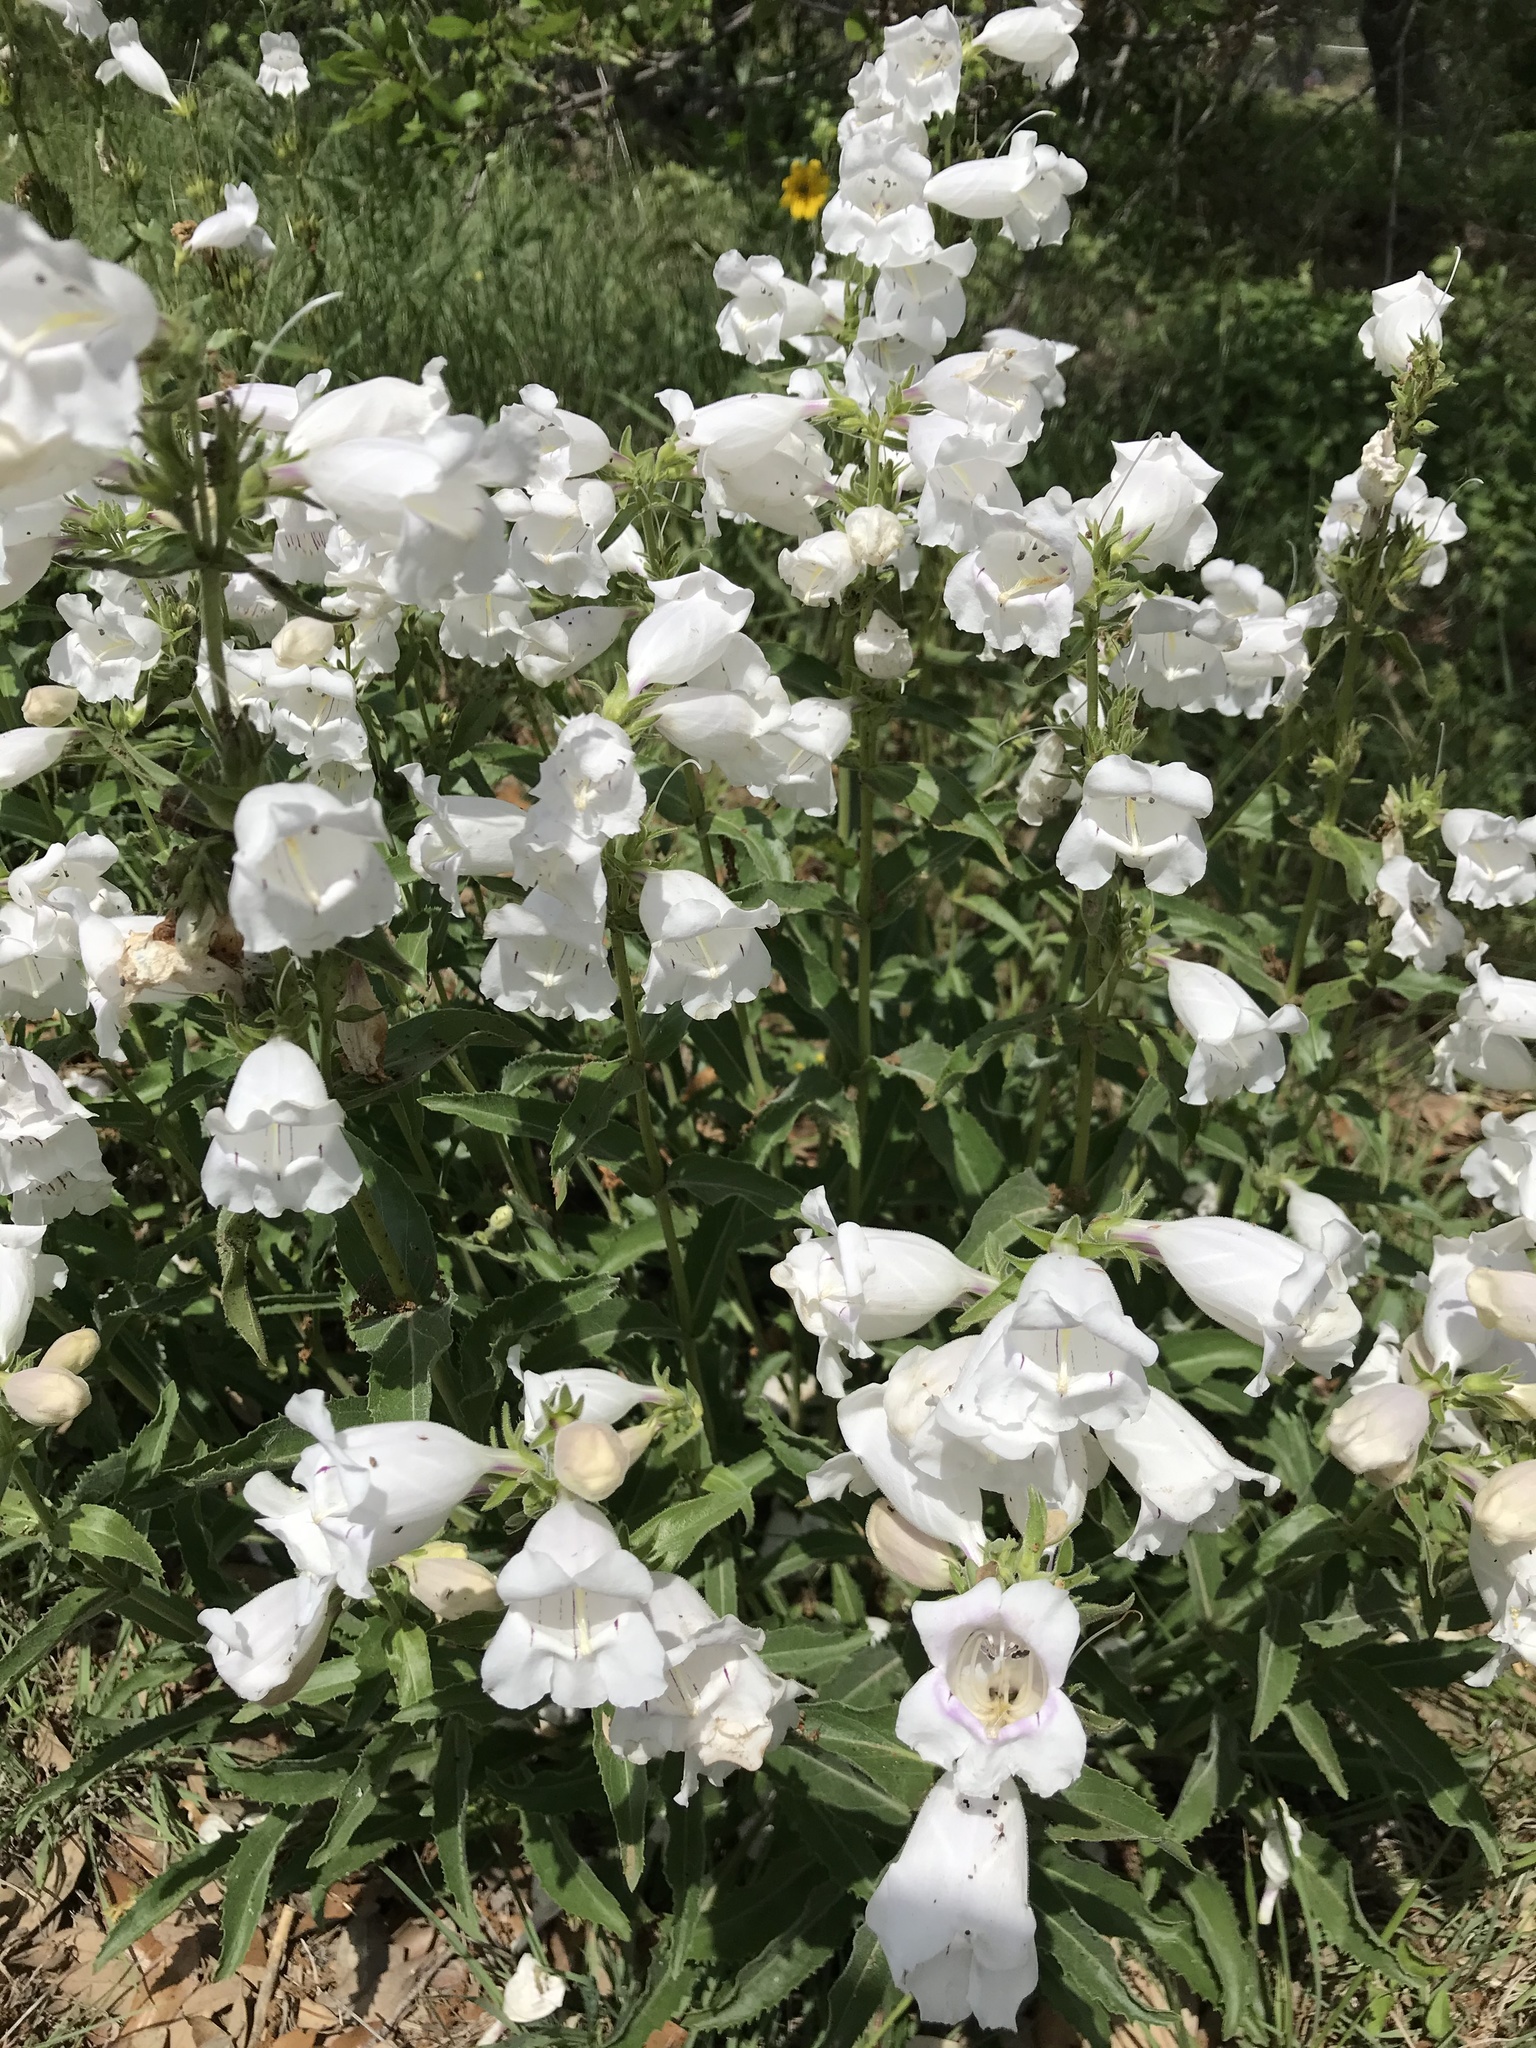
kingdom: Plantae
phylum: Tracheophyta
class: Magnoliopsida
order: Lamiales
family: Plantaginaceae
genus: Penstemon
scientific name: Penstemon cobaea
